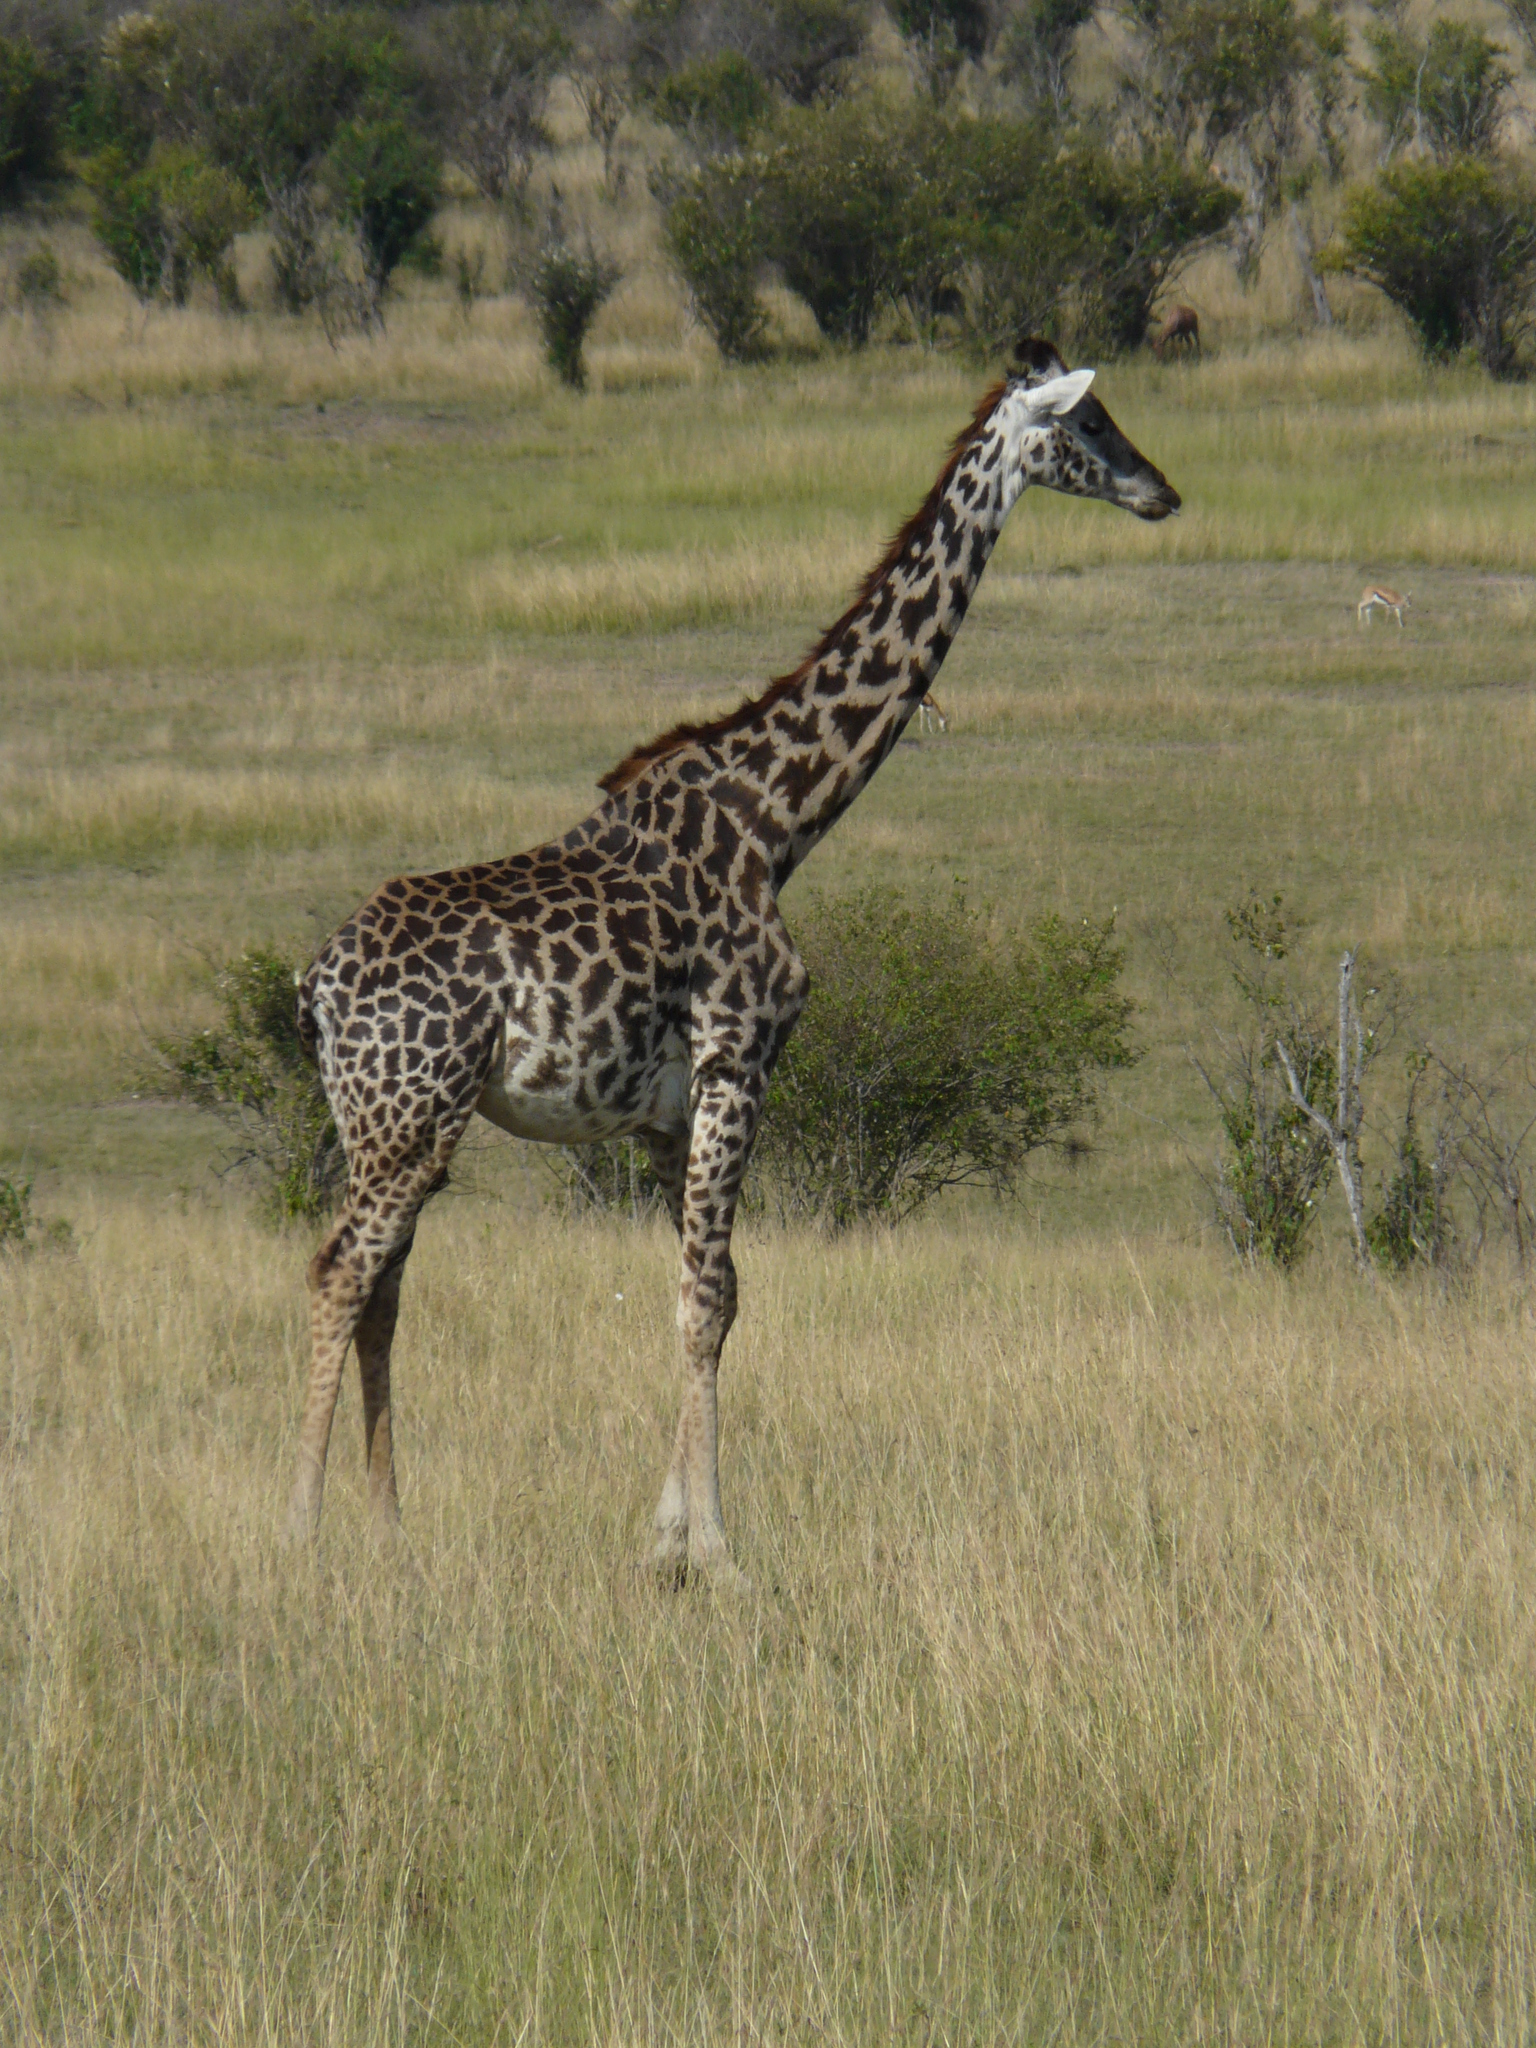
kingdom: Animalia
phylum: Chordata
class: Mammalia
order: Artiodactyla
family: Giraffidae
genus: Giraffa
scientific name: Giraffa tippelskirchi
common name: Masai giraffe
